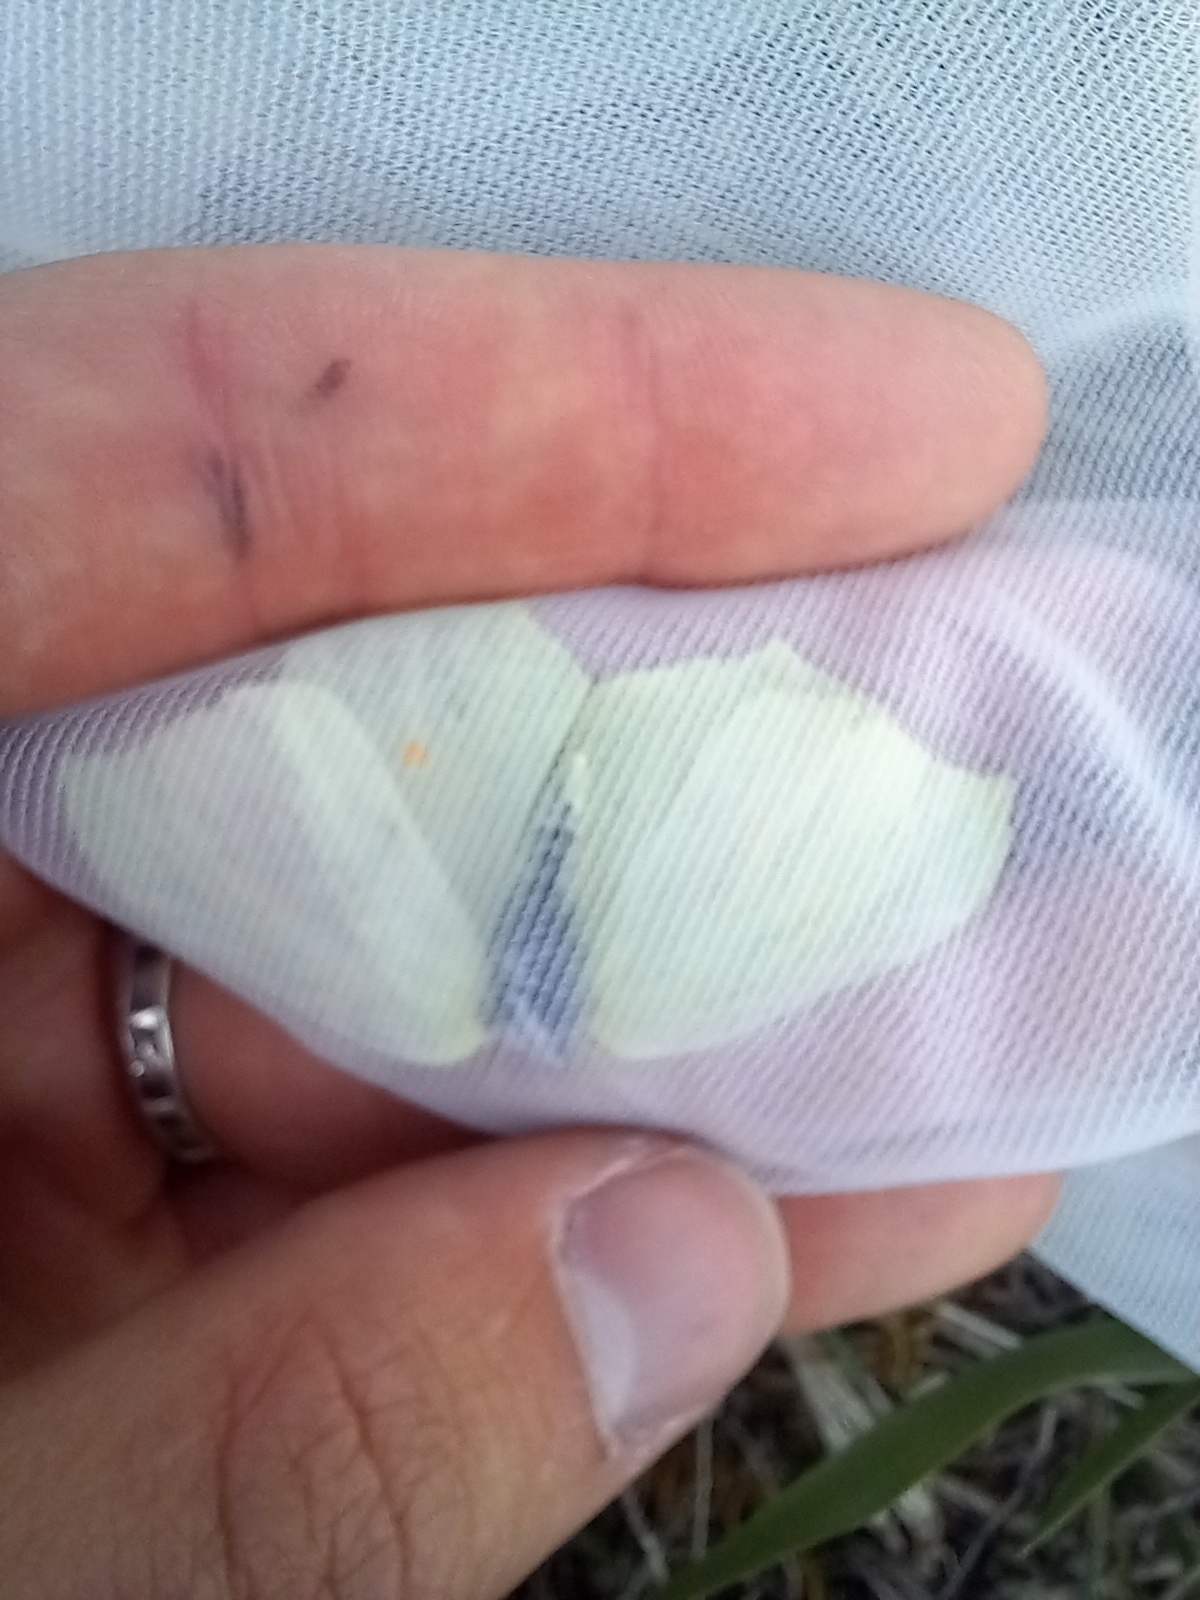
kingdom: Animalia
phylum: Arthropoda
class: Insecta
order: Lepidoptera
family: Pieridae
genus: Gonepteryx
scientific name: Gonepteryx rhamni
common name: Brimstone
